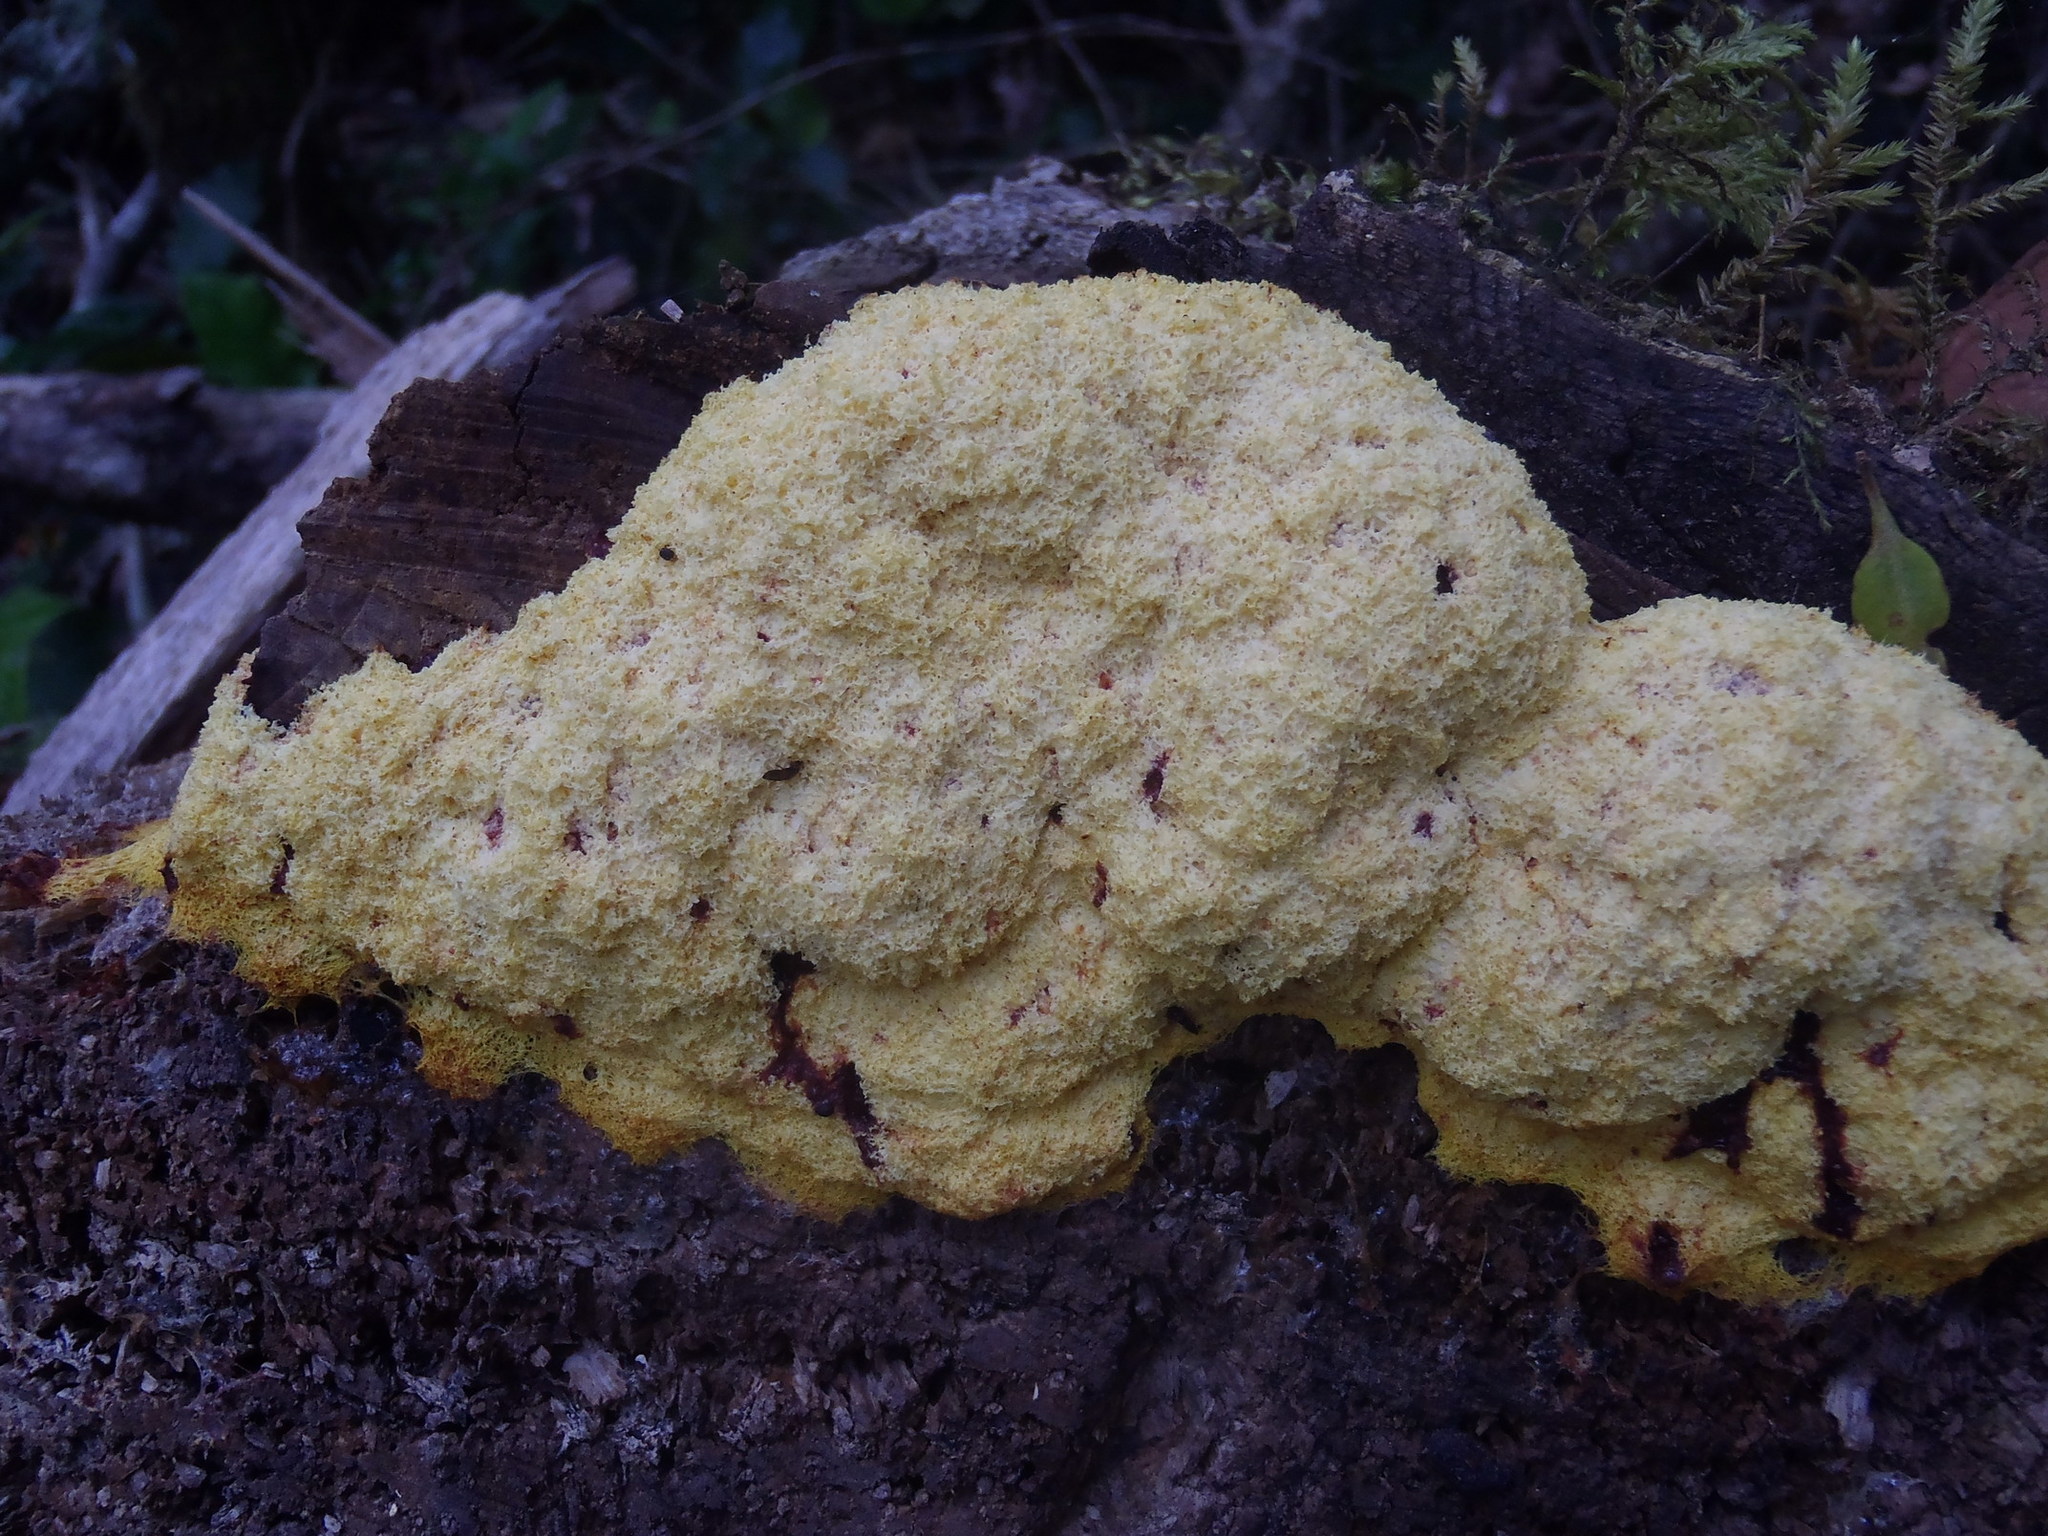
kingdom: Protozoa
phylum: Mycetozoa
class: Myxomycetes
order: Physarales
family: Physaraceae
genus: Fuligo
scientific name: Fuligo septica
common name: Dog vomit slime mold
